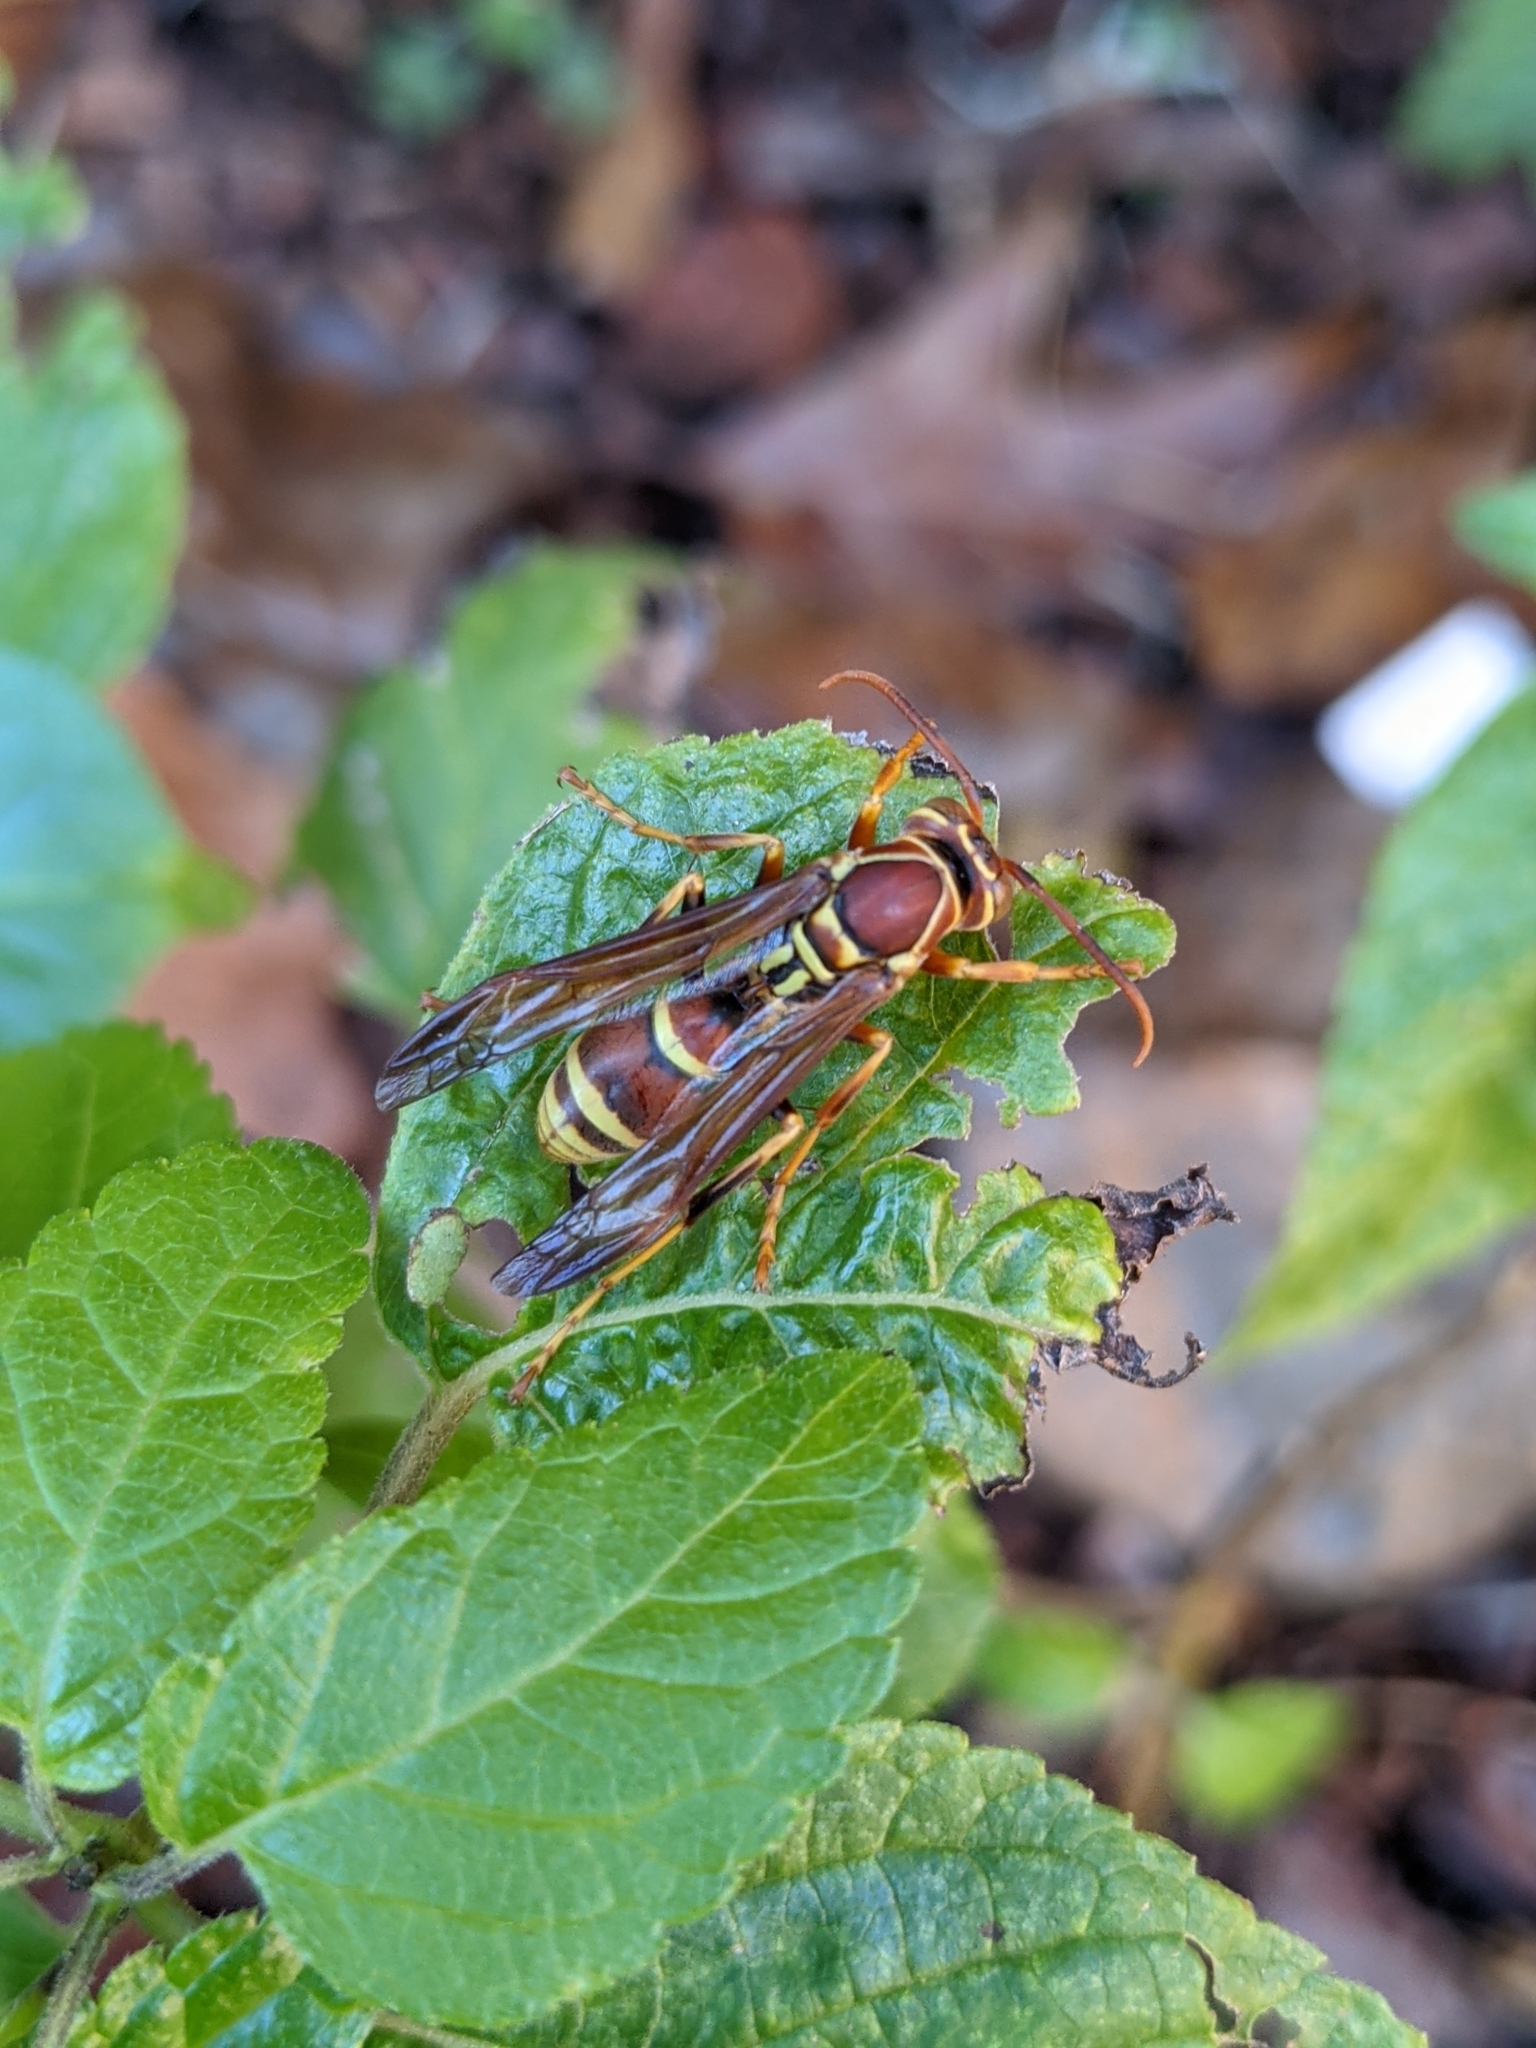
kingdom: Animalia
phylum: Arthropoda
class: Insecta
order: Hymenoptera
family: Eumenidae
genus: Polistes
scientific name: Polistes exclamans
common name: Paper wasp
